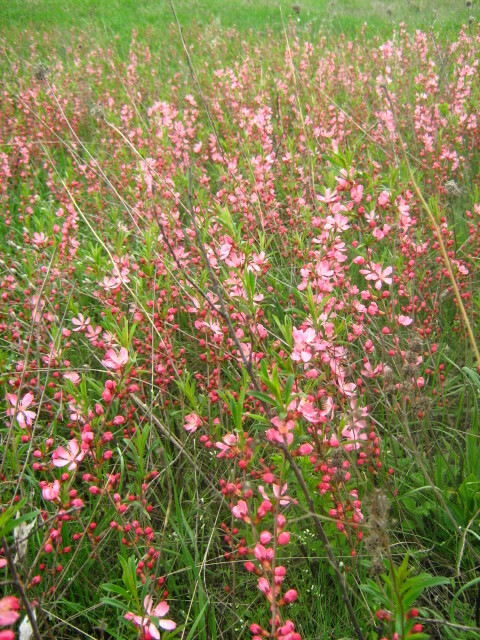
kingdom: Plantae
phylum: Tracheophyta
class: Magnoliopsida
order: Rosales
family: Rosaceae
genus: Prunus
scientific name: Prunus tenella
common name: Dwarf russian almond
